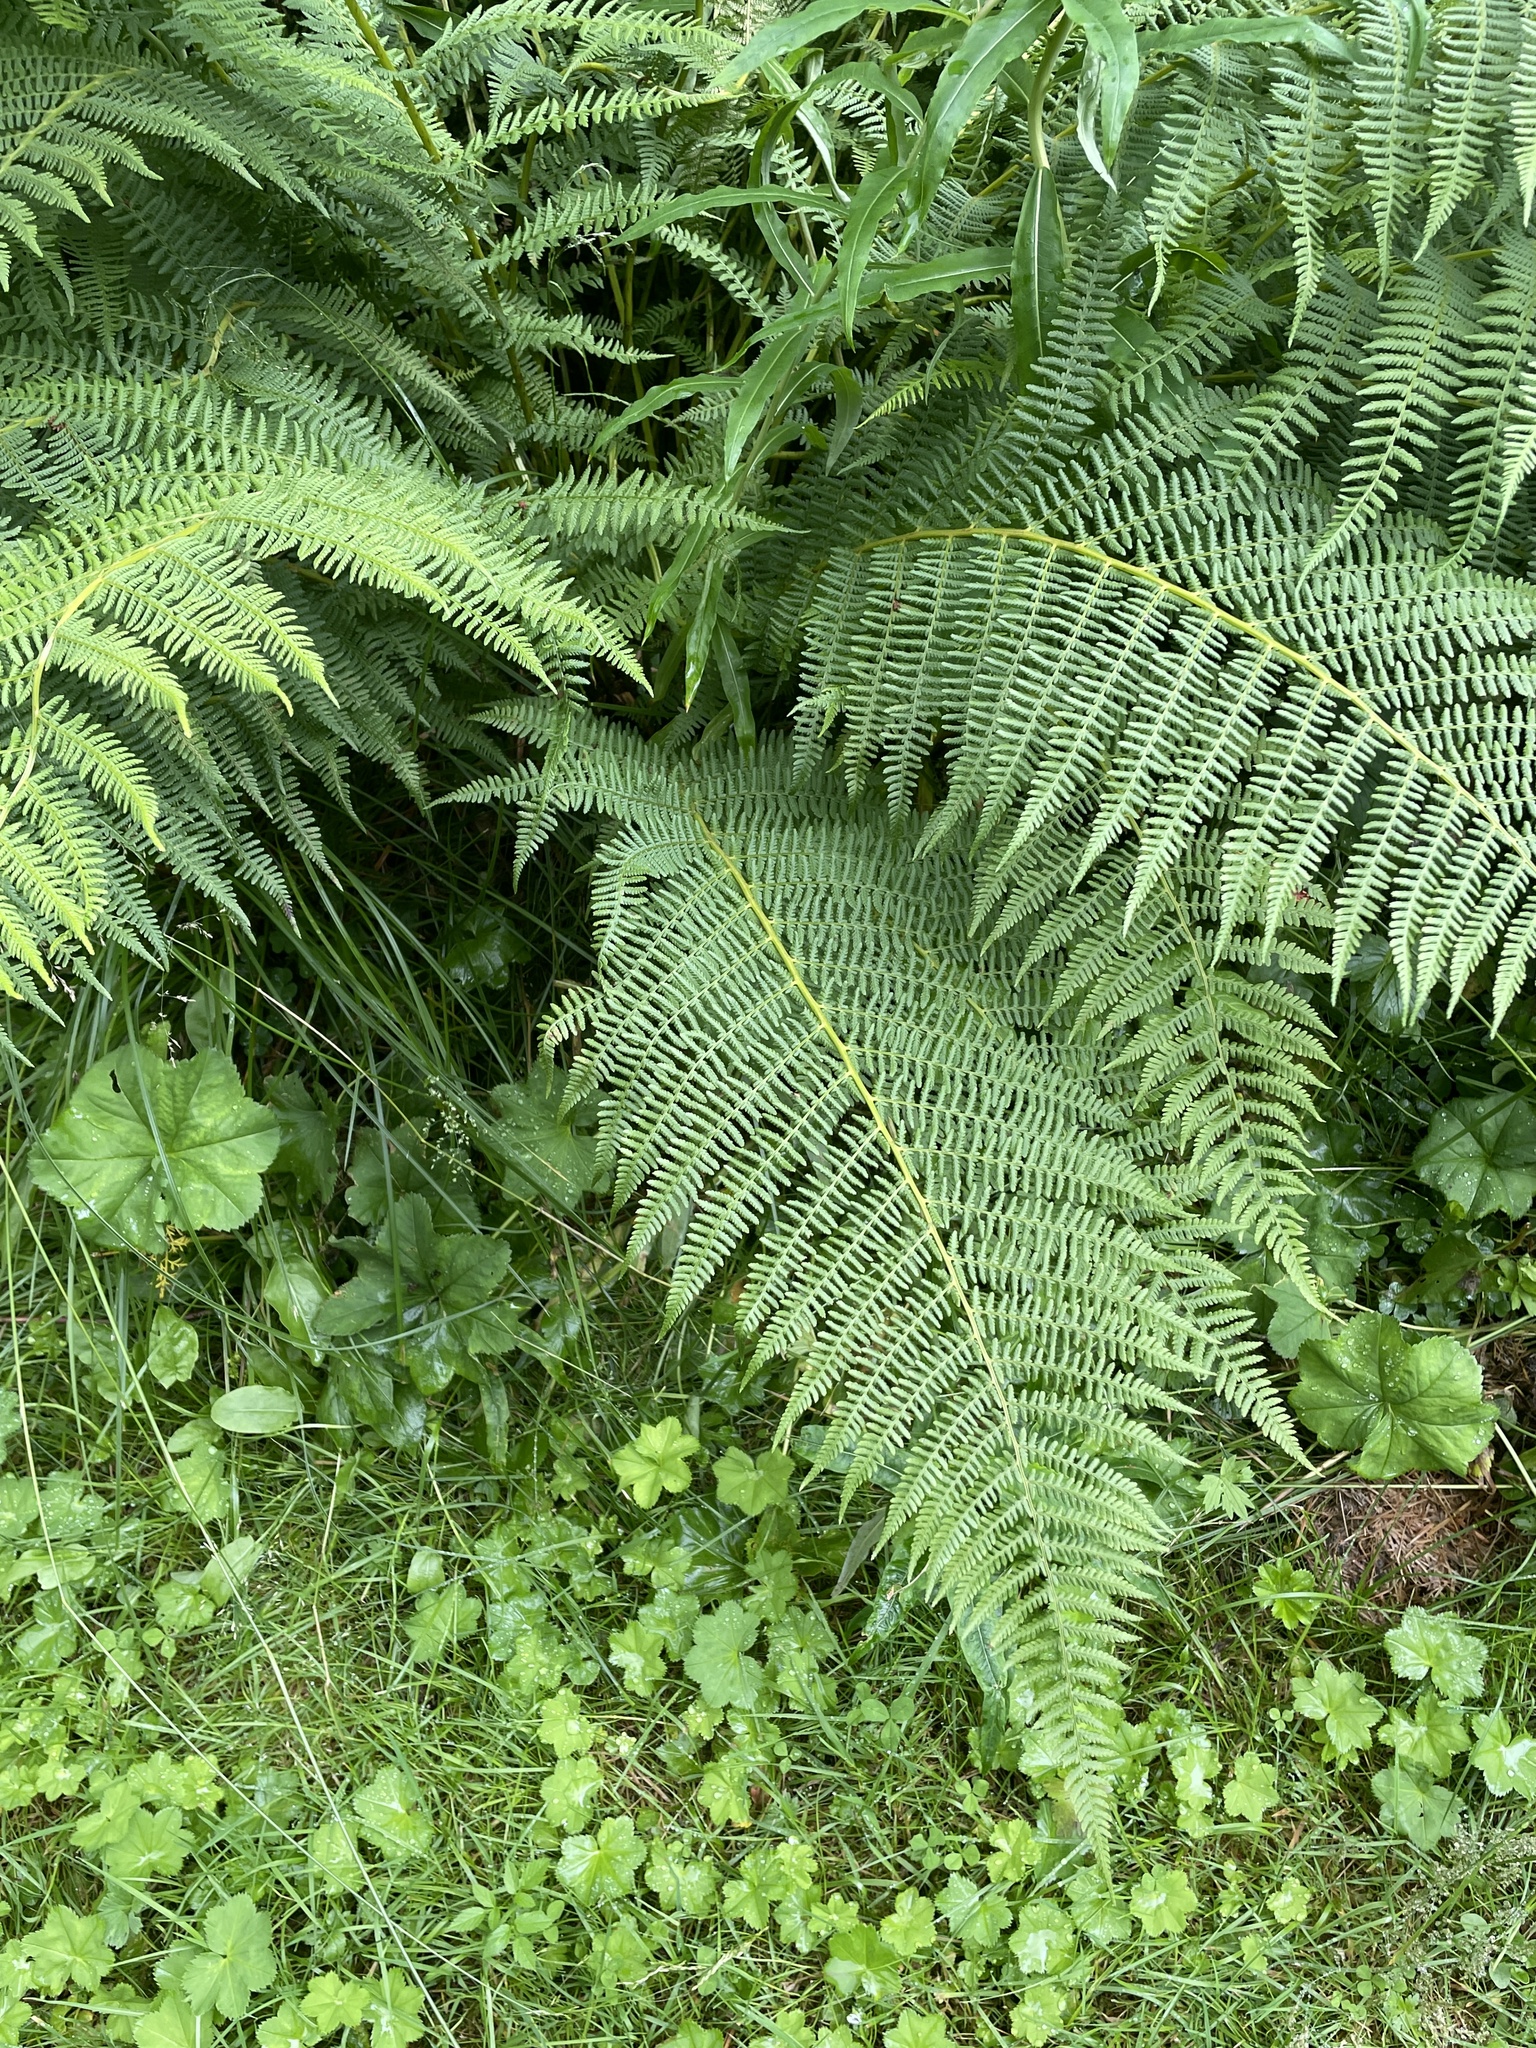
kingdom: Plantae
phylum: Tracheophyta
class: Polypodiopsida
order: Polypodiales
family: Athyriaceae
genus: Athyrium
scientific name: Athyrium filix-femina
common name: Lady fern
